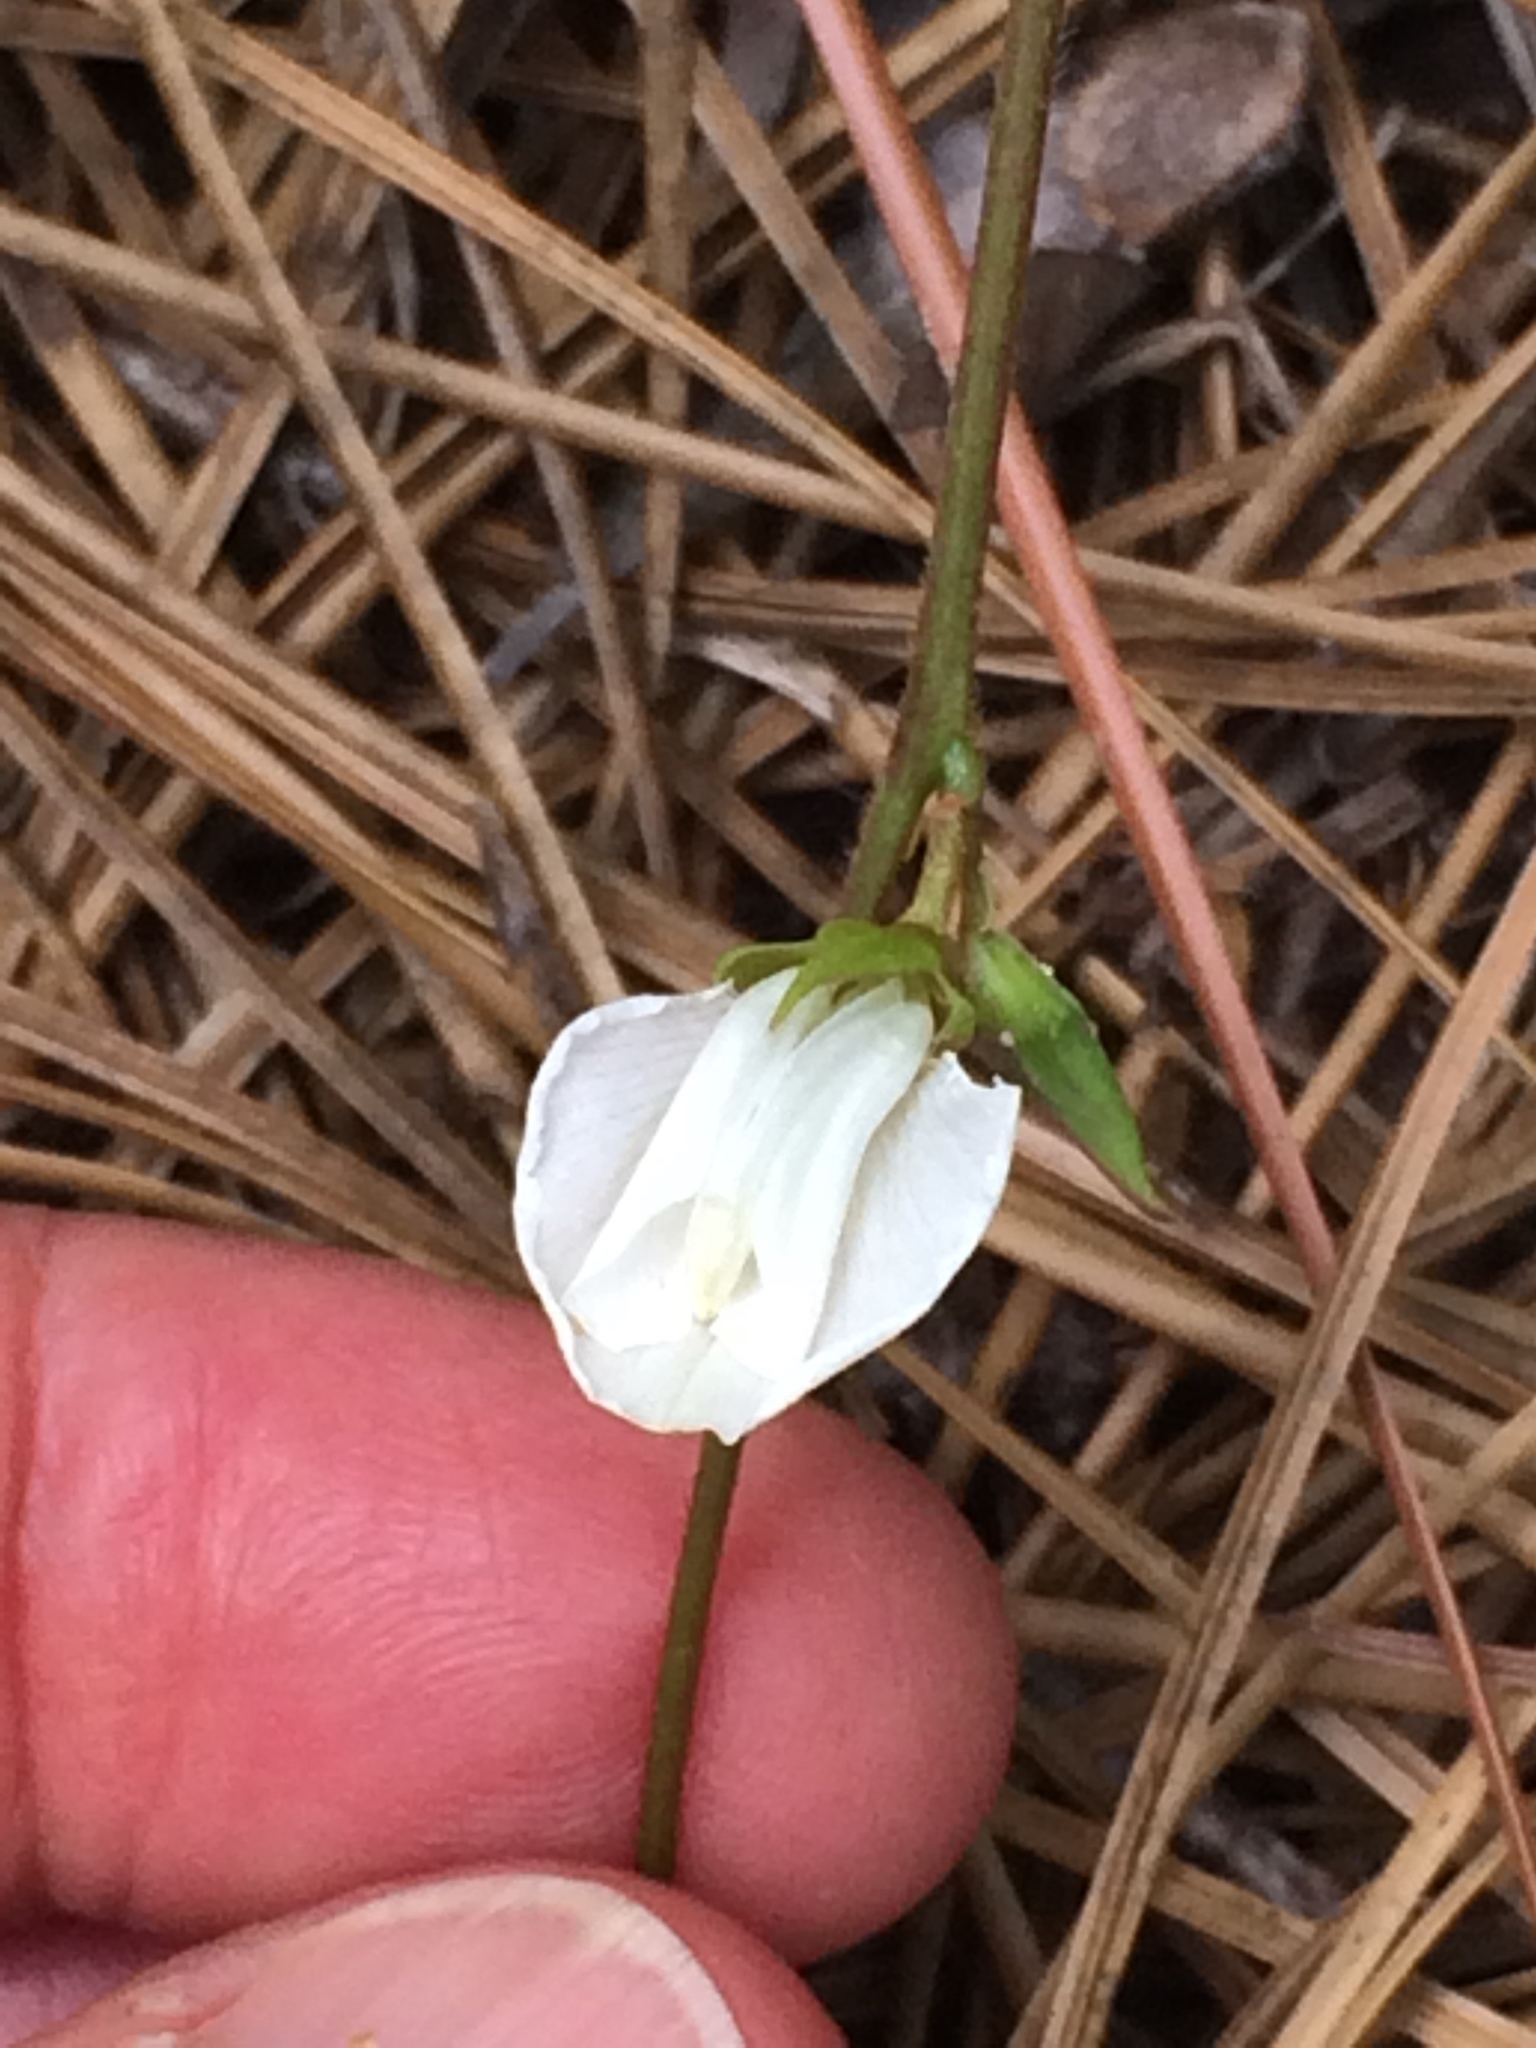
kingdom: Plantae
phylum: Tracheophyta
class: Magnoliopsida
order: Fabales
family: Fabaceae
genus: Galactia
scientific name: Galactia elliottii
